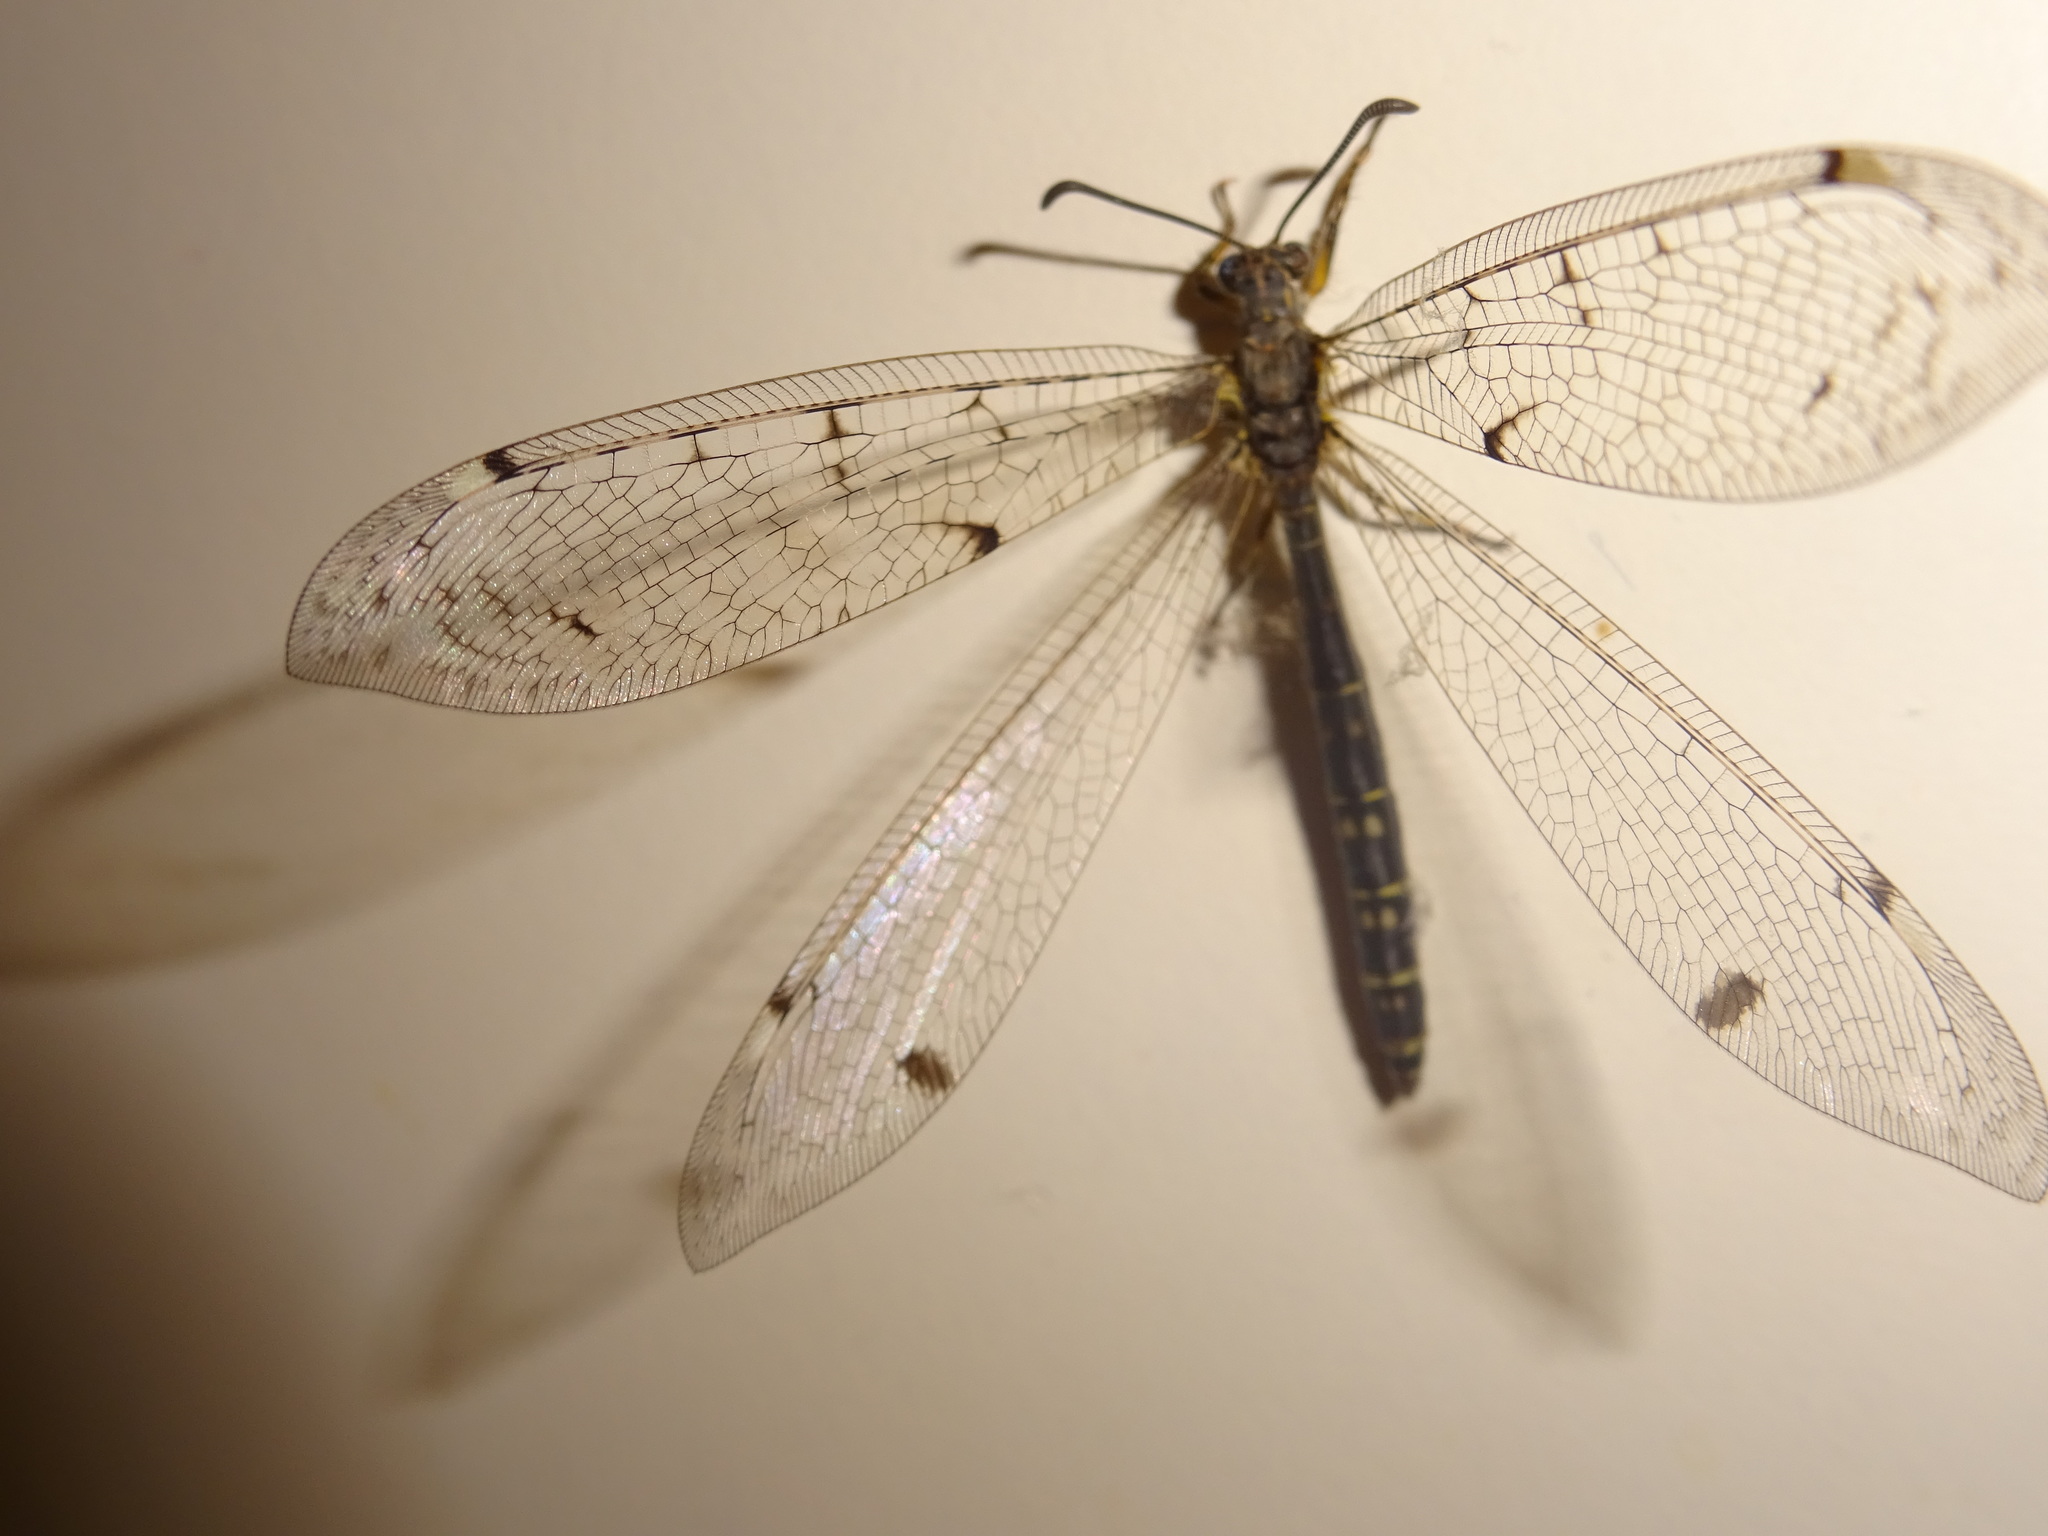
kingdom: Animalia
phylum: Arthropoda
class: Insecta
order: Neuroptera
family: Myrmeleontidae
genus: Distoleon
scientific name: Distoleon tetragrammicus
